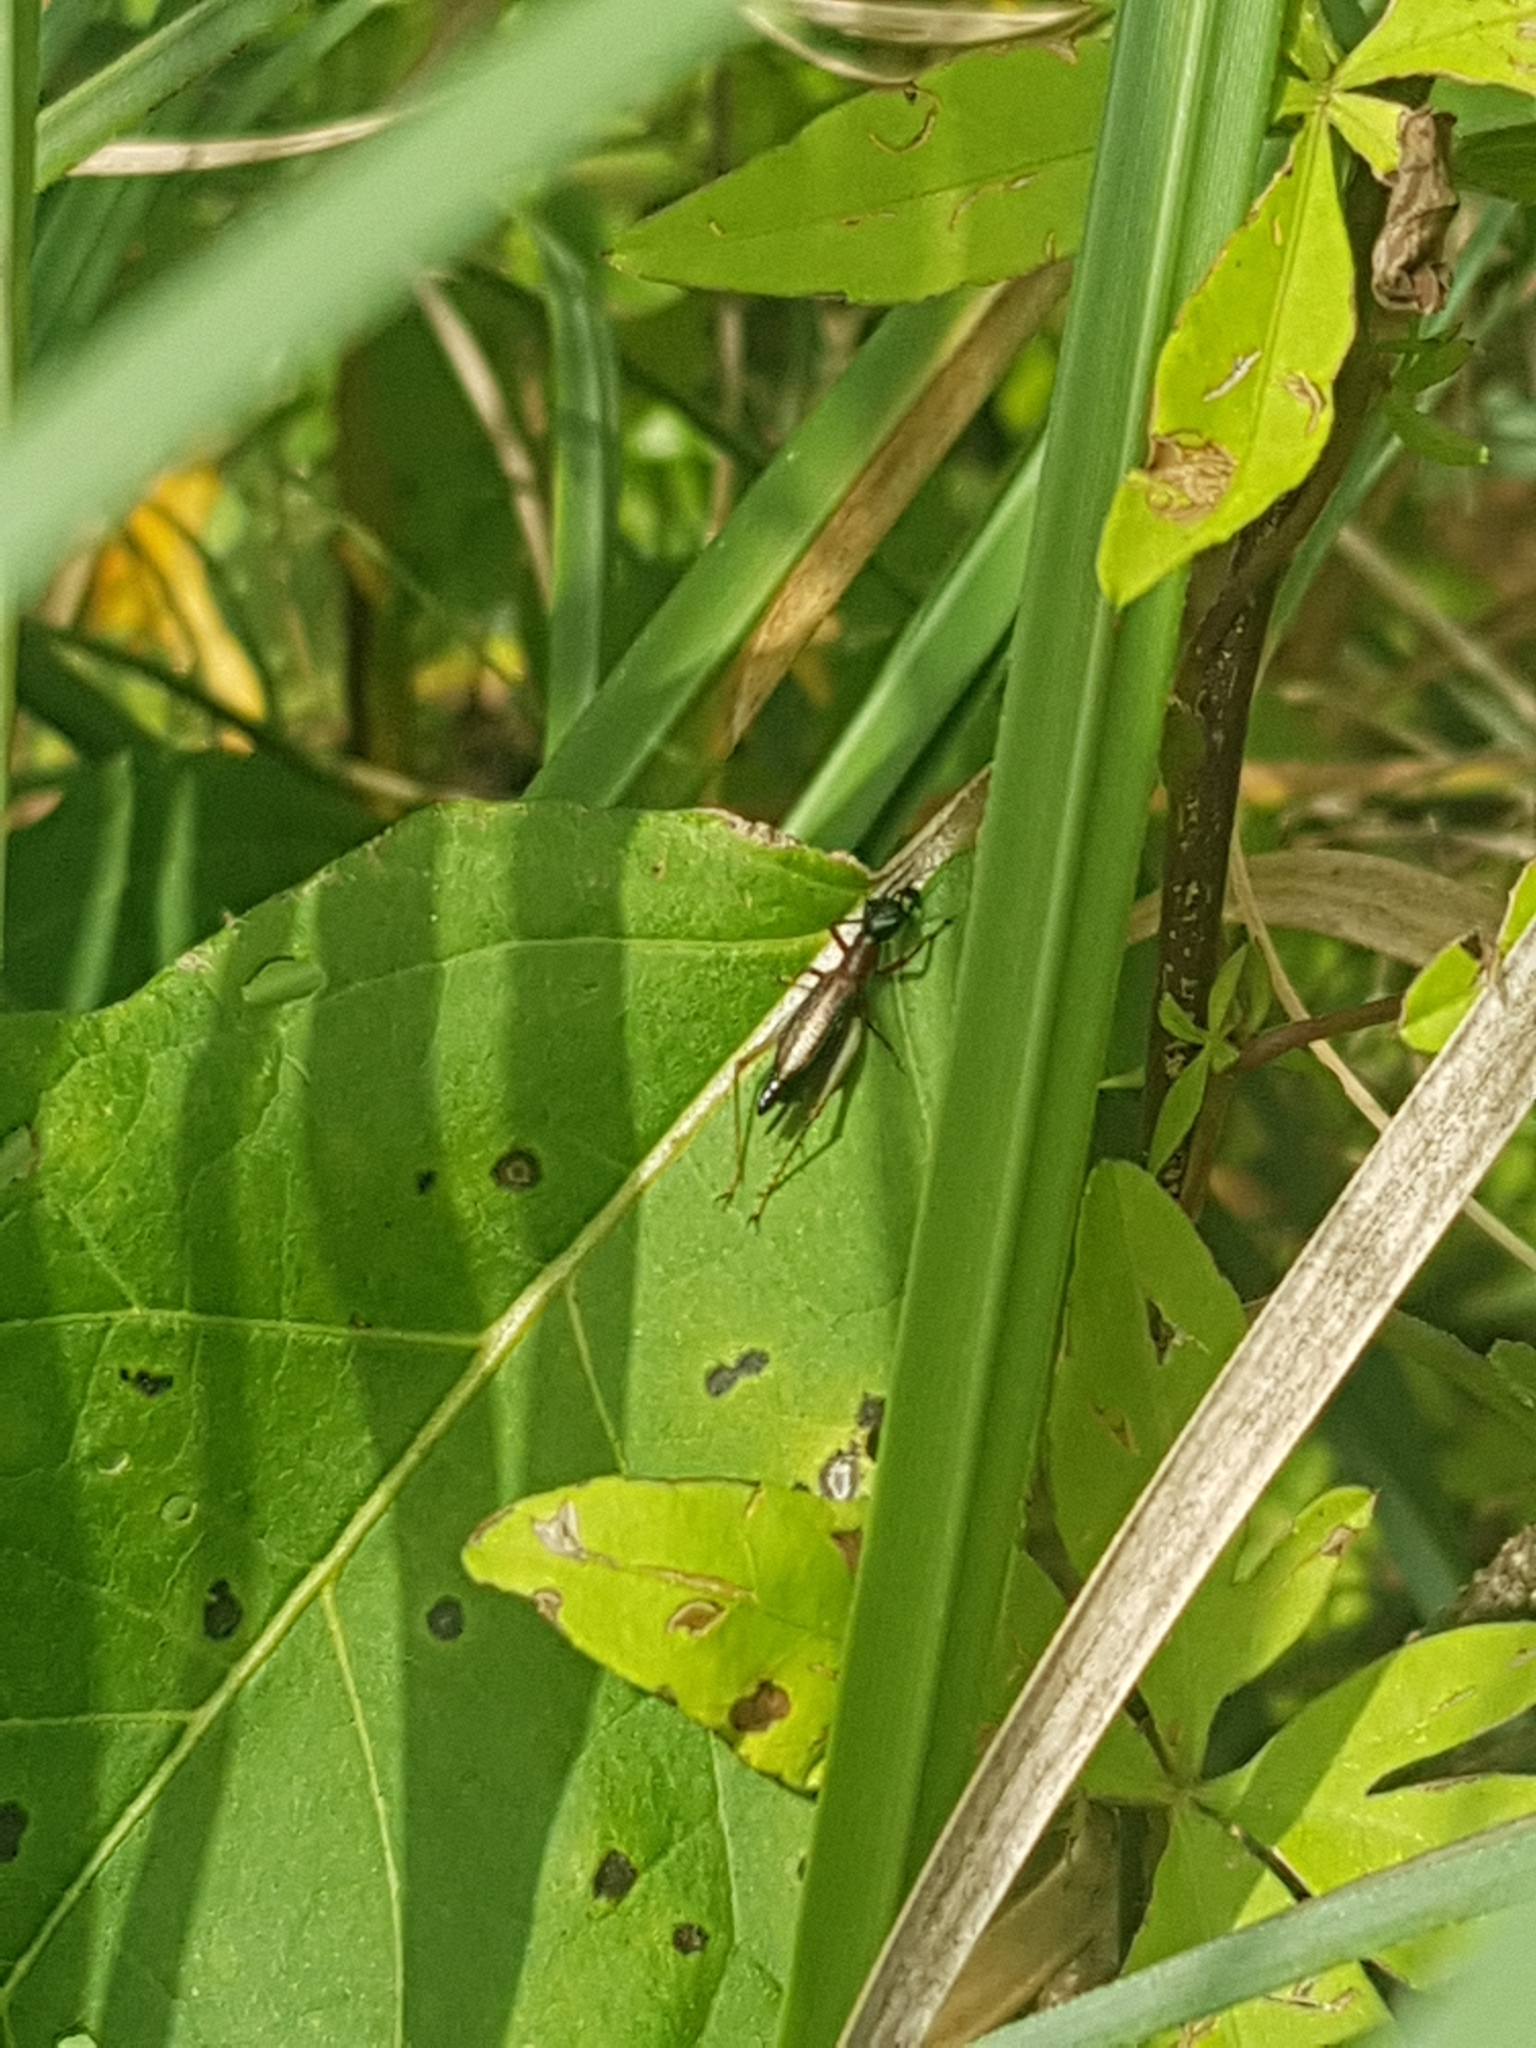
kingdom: Animalia
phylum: Arthropoda
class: Insecta
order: Orthoptera
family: Trigonidiidae
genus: Cranistus
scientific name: Cranistus colliurides
